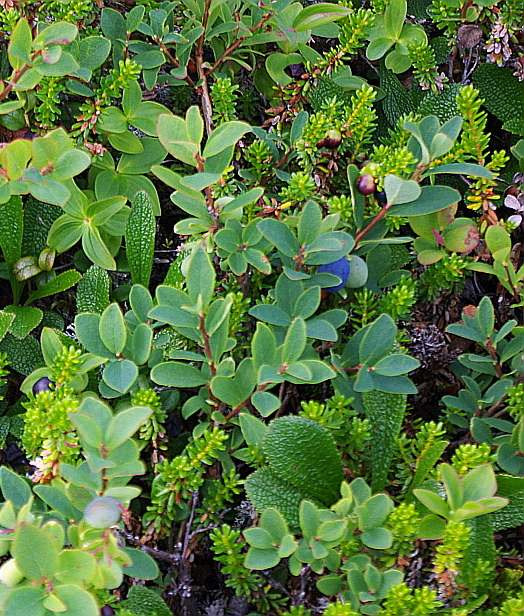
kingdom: Plantae
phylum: Tracheophyta
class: Magnoliopsida
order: Ericales
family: Ericaceae
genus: Vaccinium
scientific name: Vaccinium uliginosum
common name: Bog bilberry
